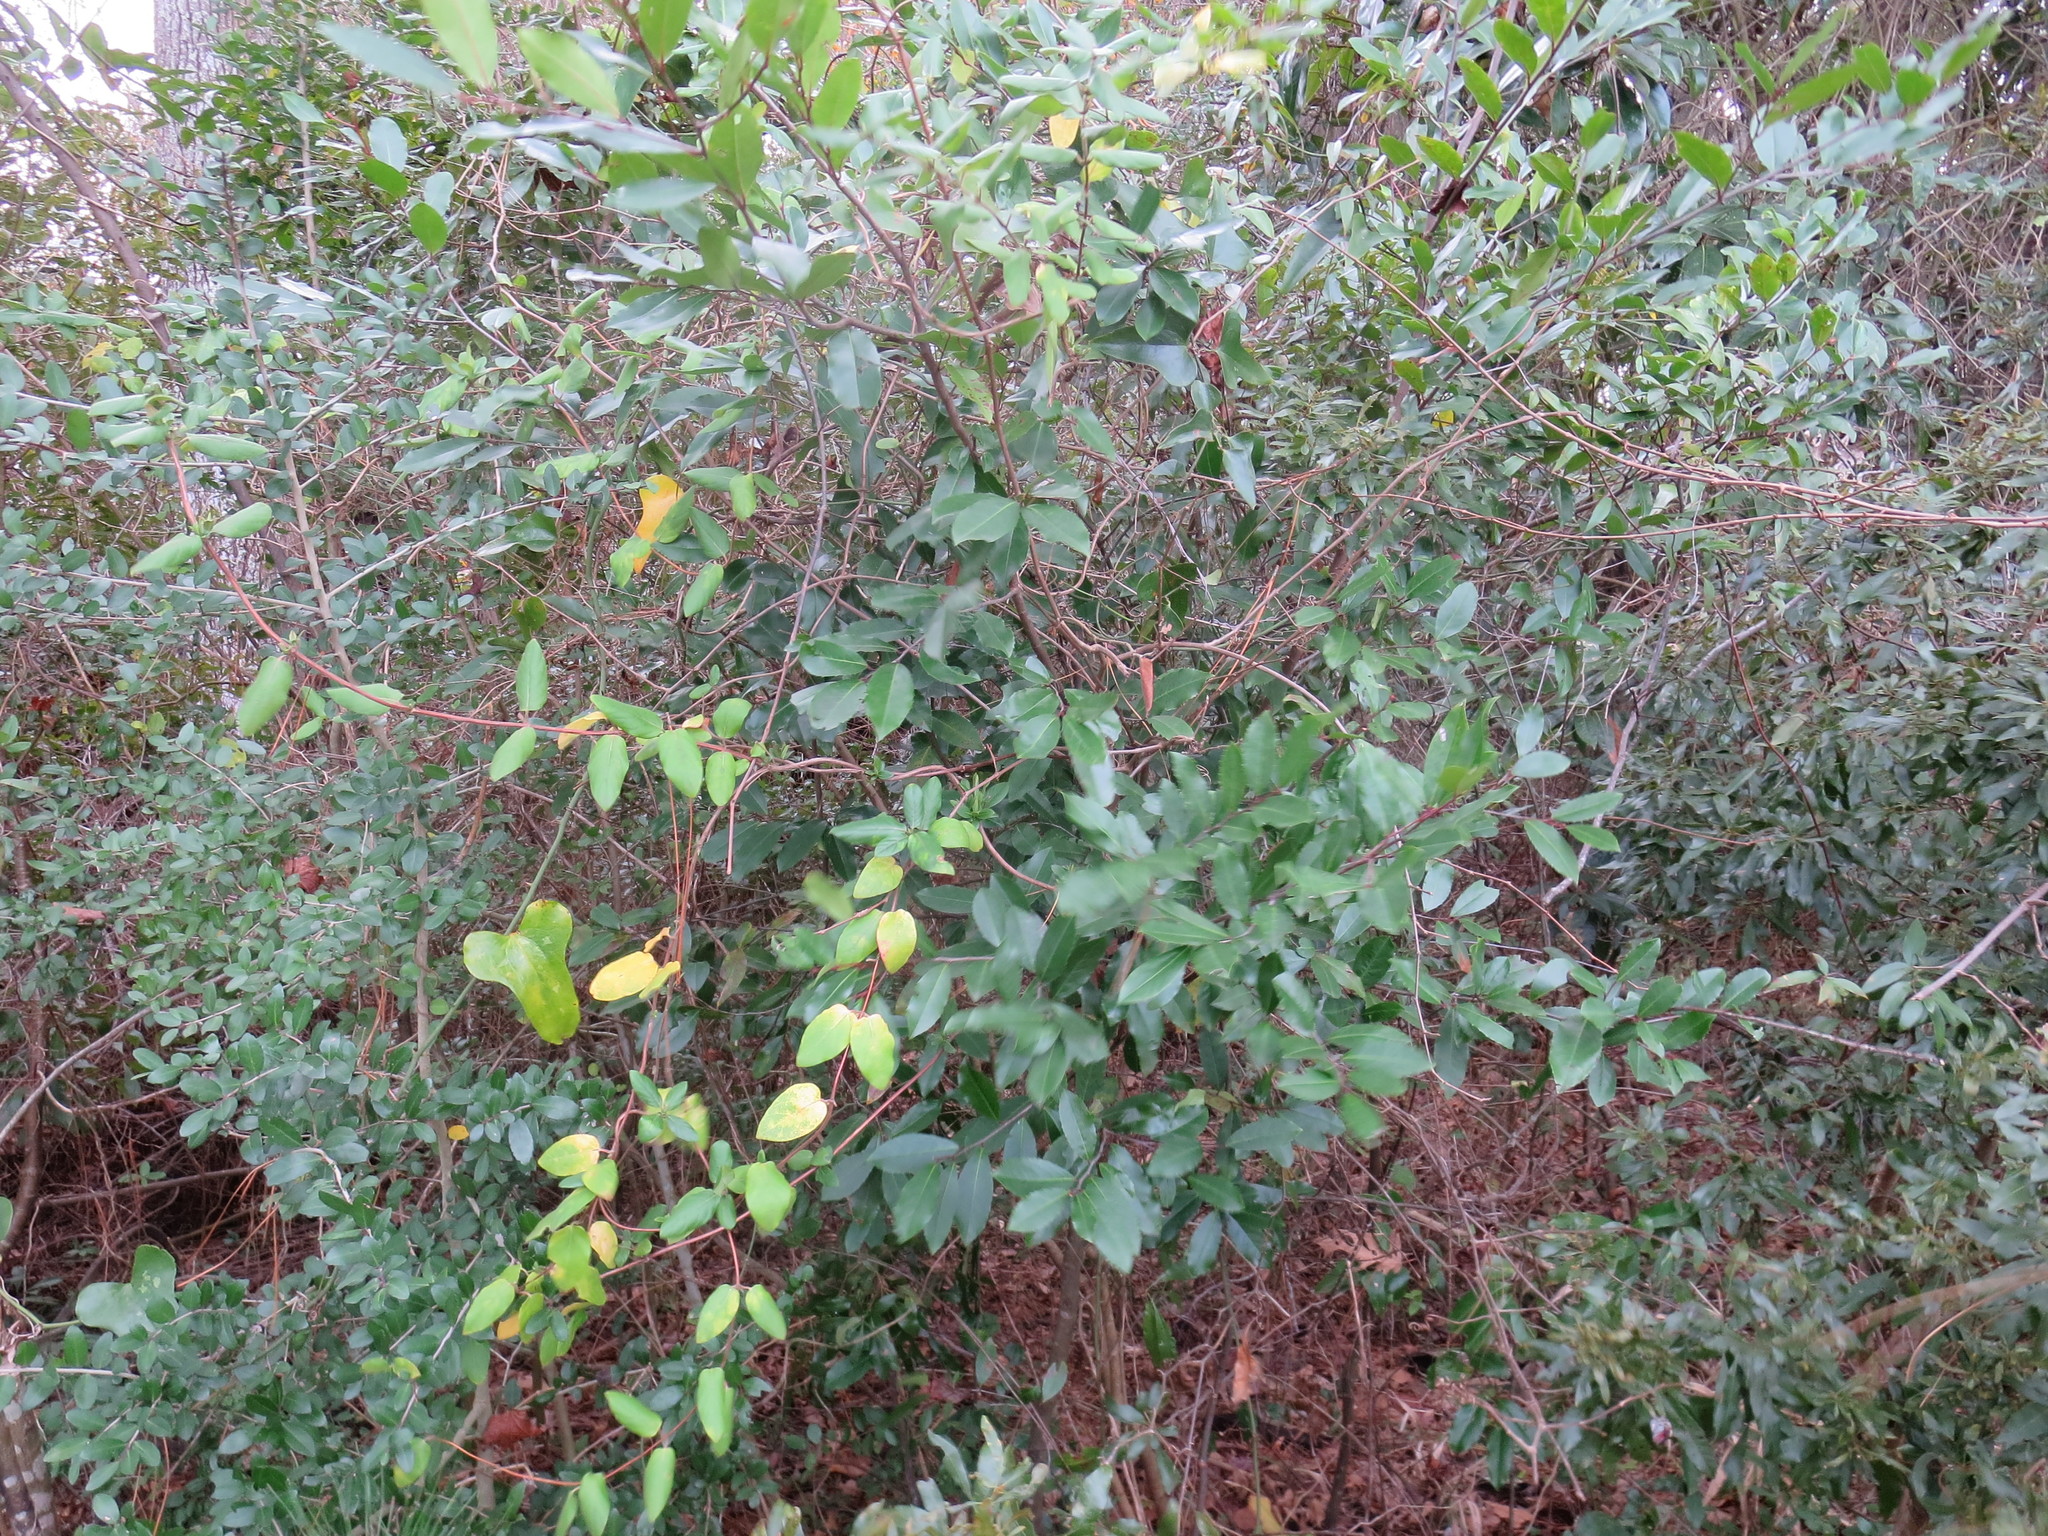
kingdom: Plantae
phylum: Tracheophyta
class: Magnoliopsida
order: Rosales
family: Rosaceae
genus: Prunus
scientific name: Prunus caroliniana
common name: Carolina laurel cherry
